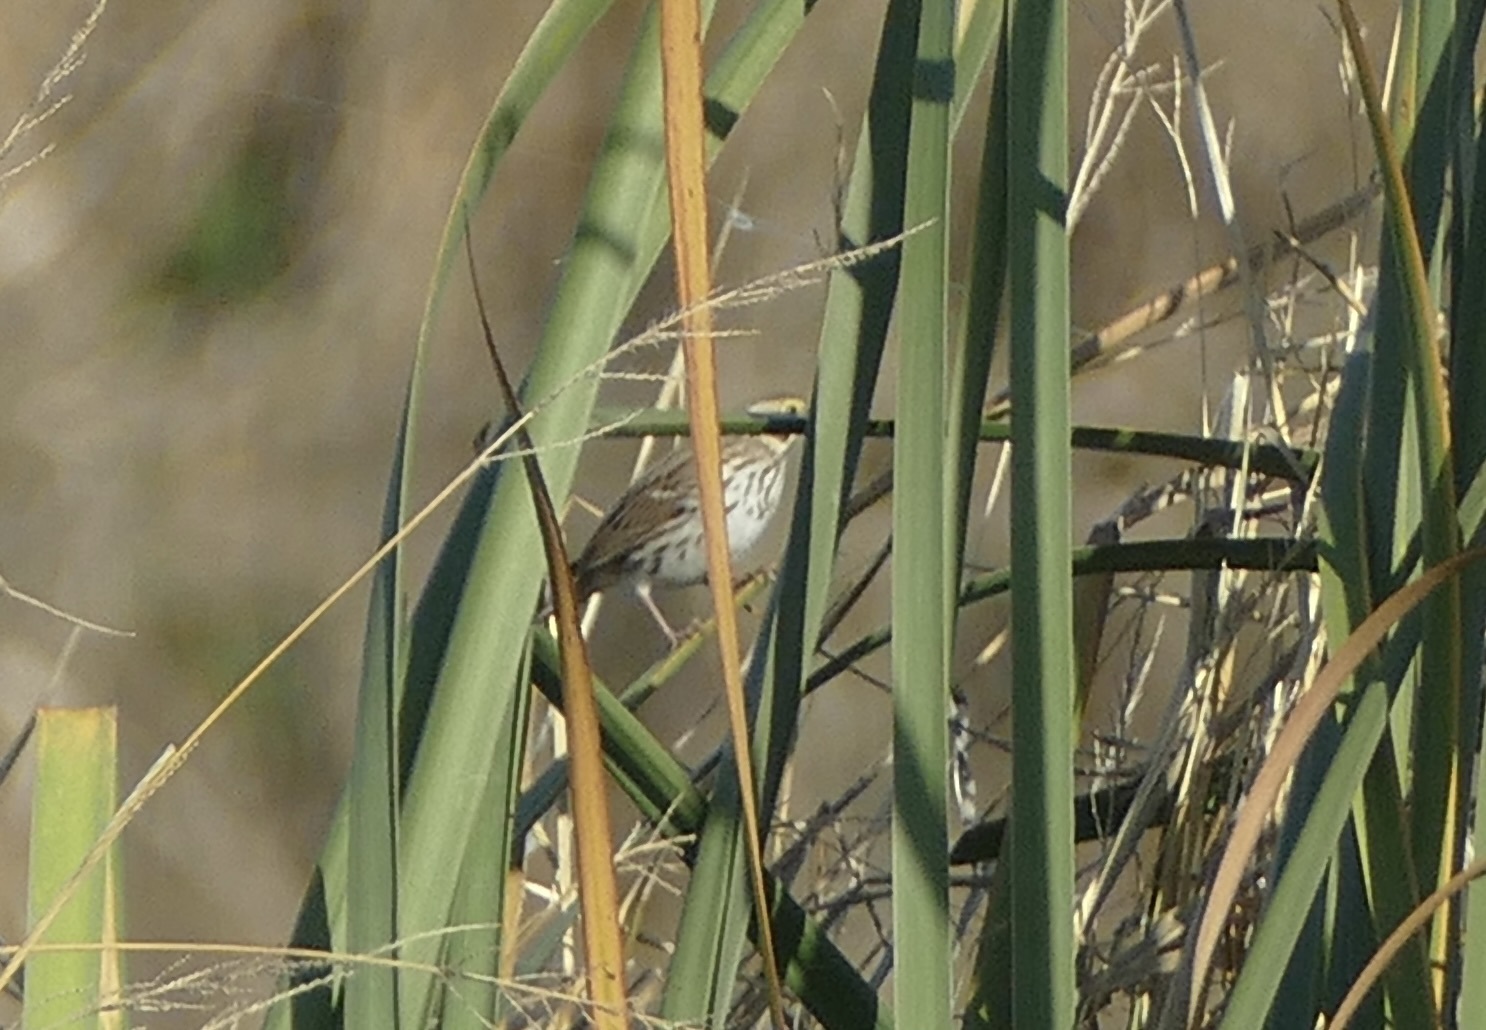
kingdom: Animalia
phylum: Chordata
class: Aves
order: Passeriformes
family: Passerellidae
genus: Passerculus
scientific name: Passerculus sandwichensis
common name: Savannah sparrow
